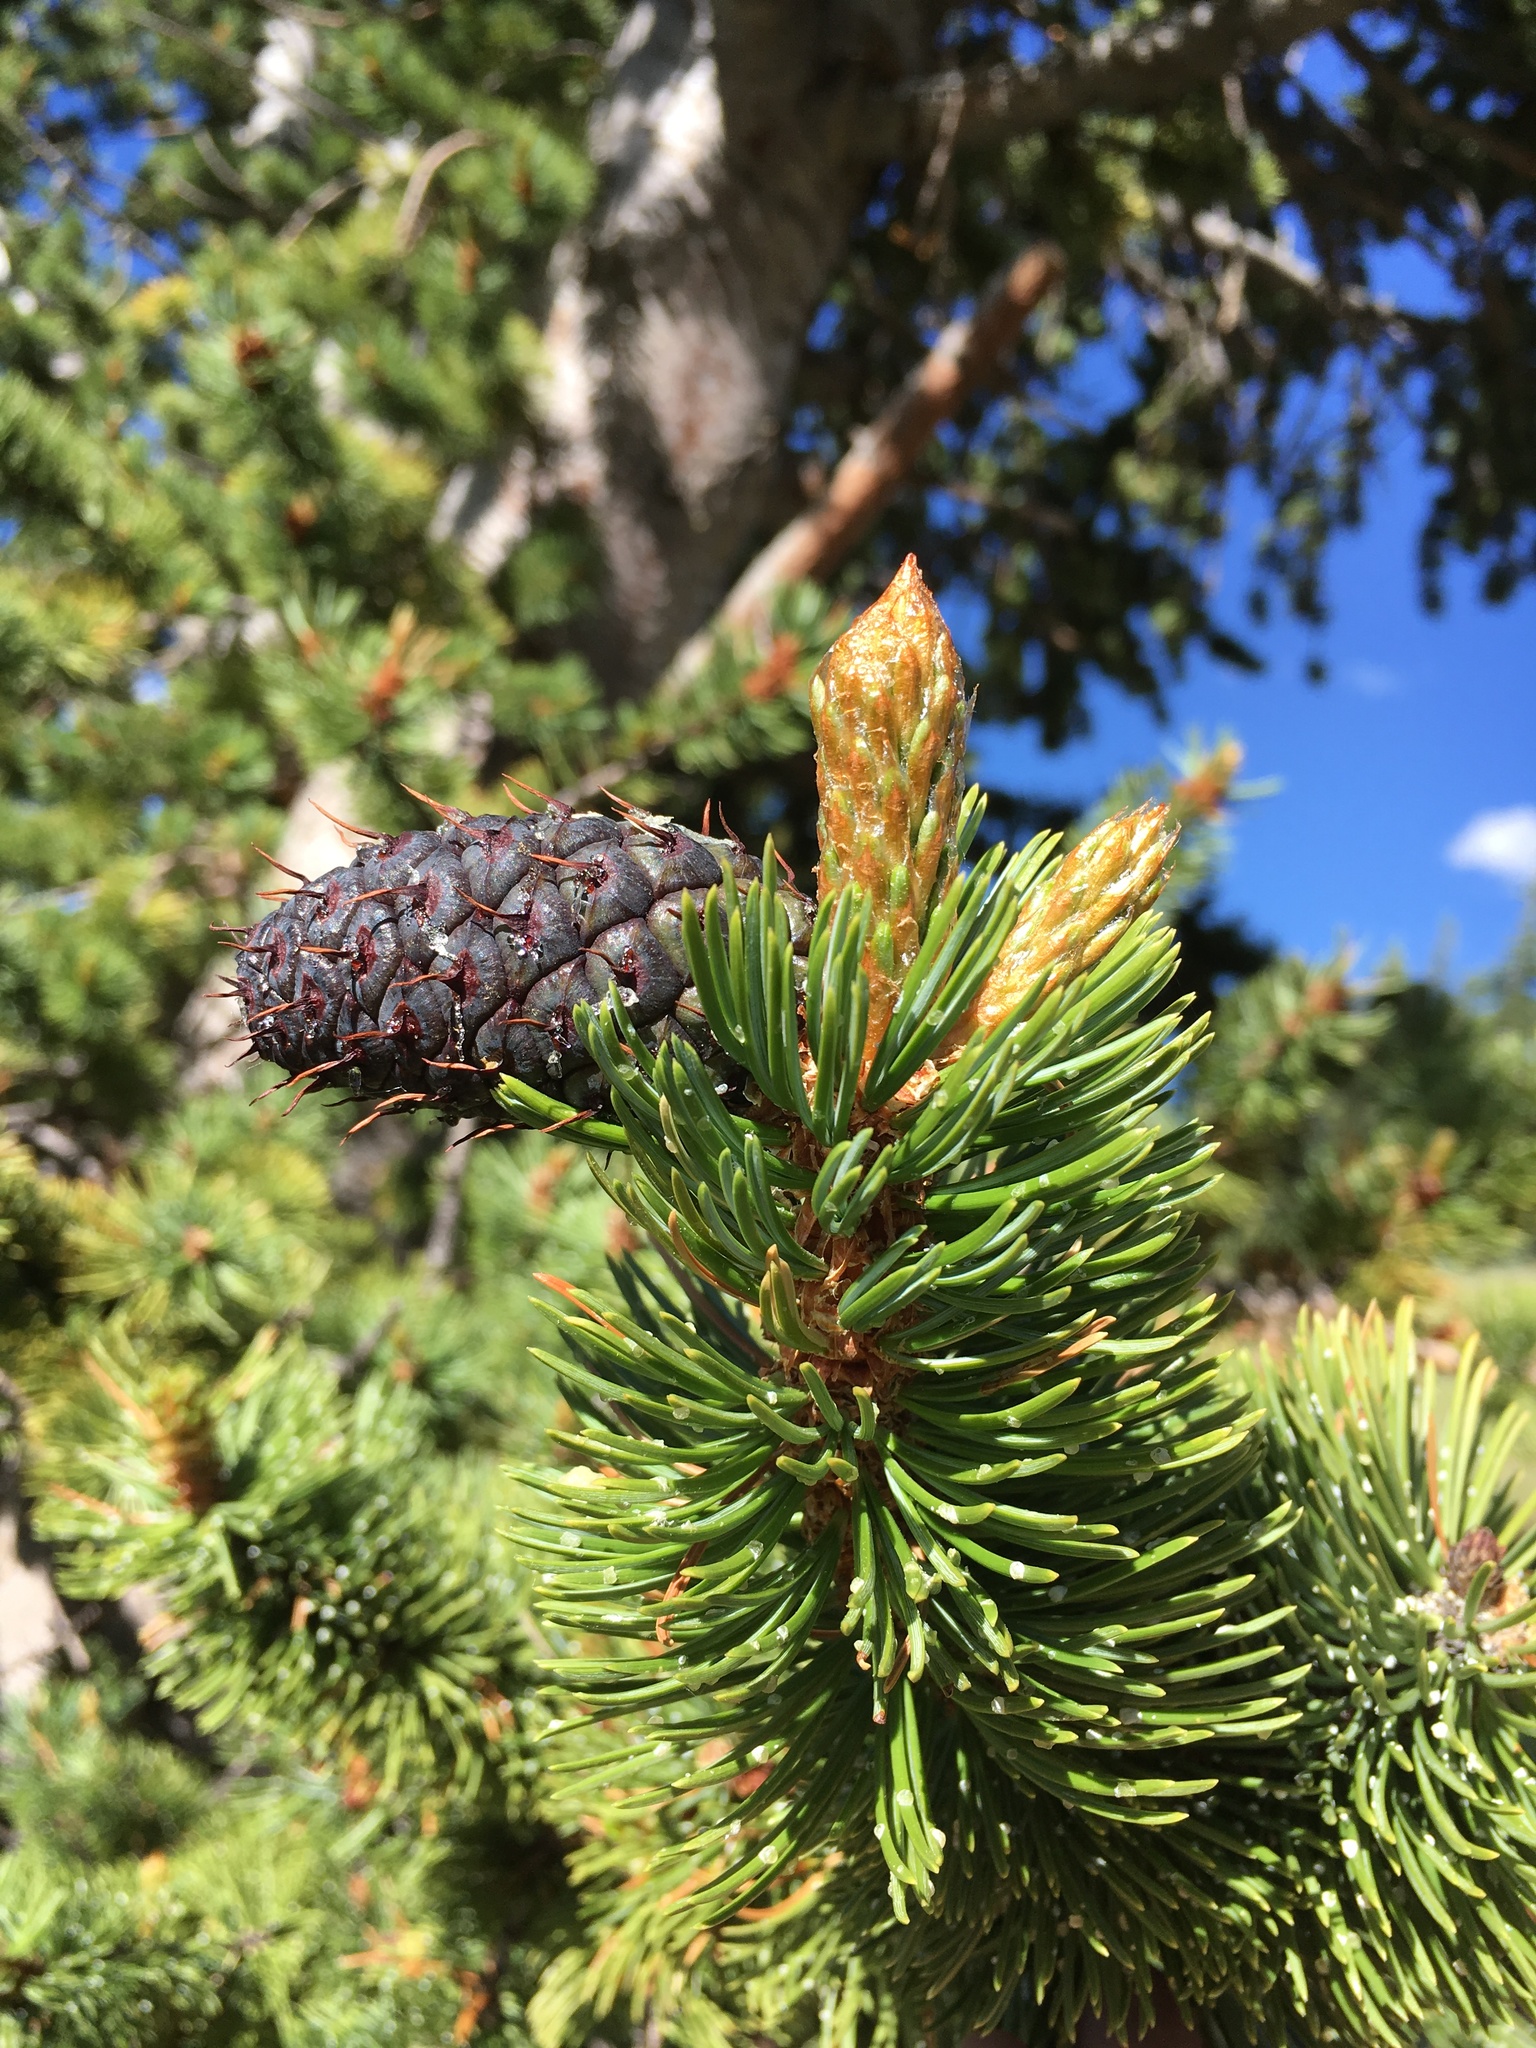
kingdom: Plantae
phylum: Tracheophyta
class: Pinopsida
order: Pinales
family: Pinaceae
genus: Pinus
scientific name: Pinus aristata
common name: Colorado bristlecone pine
